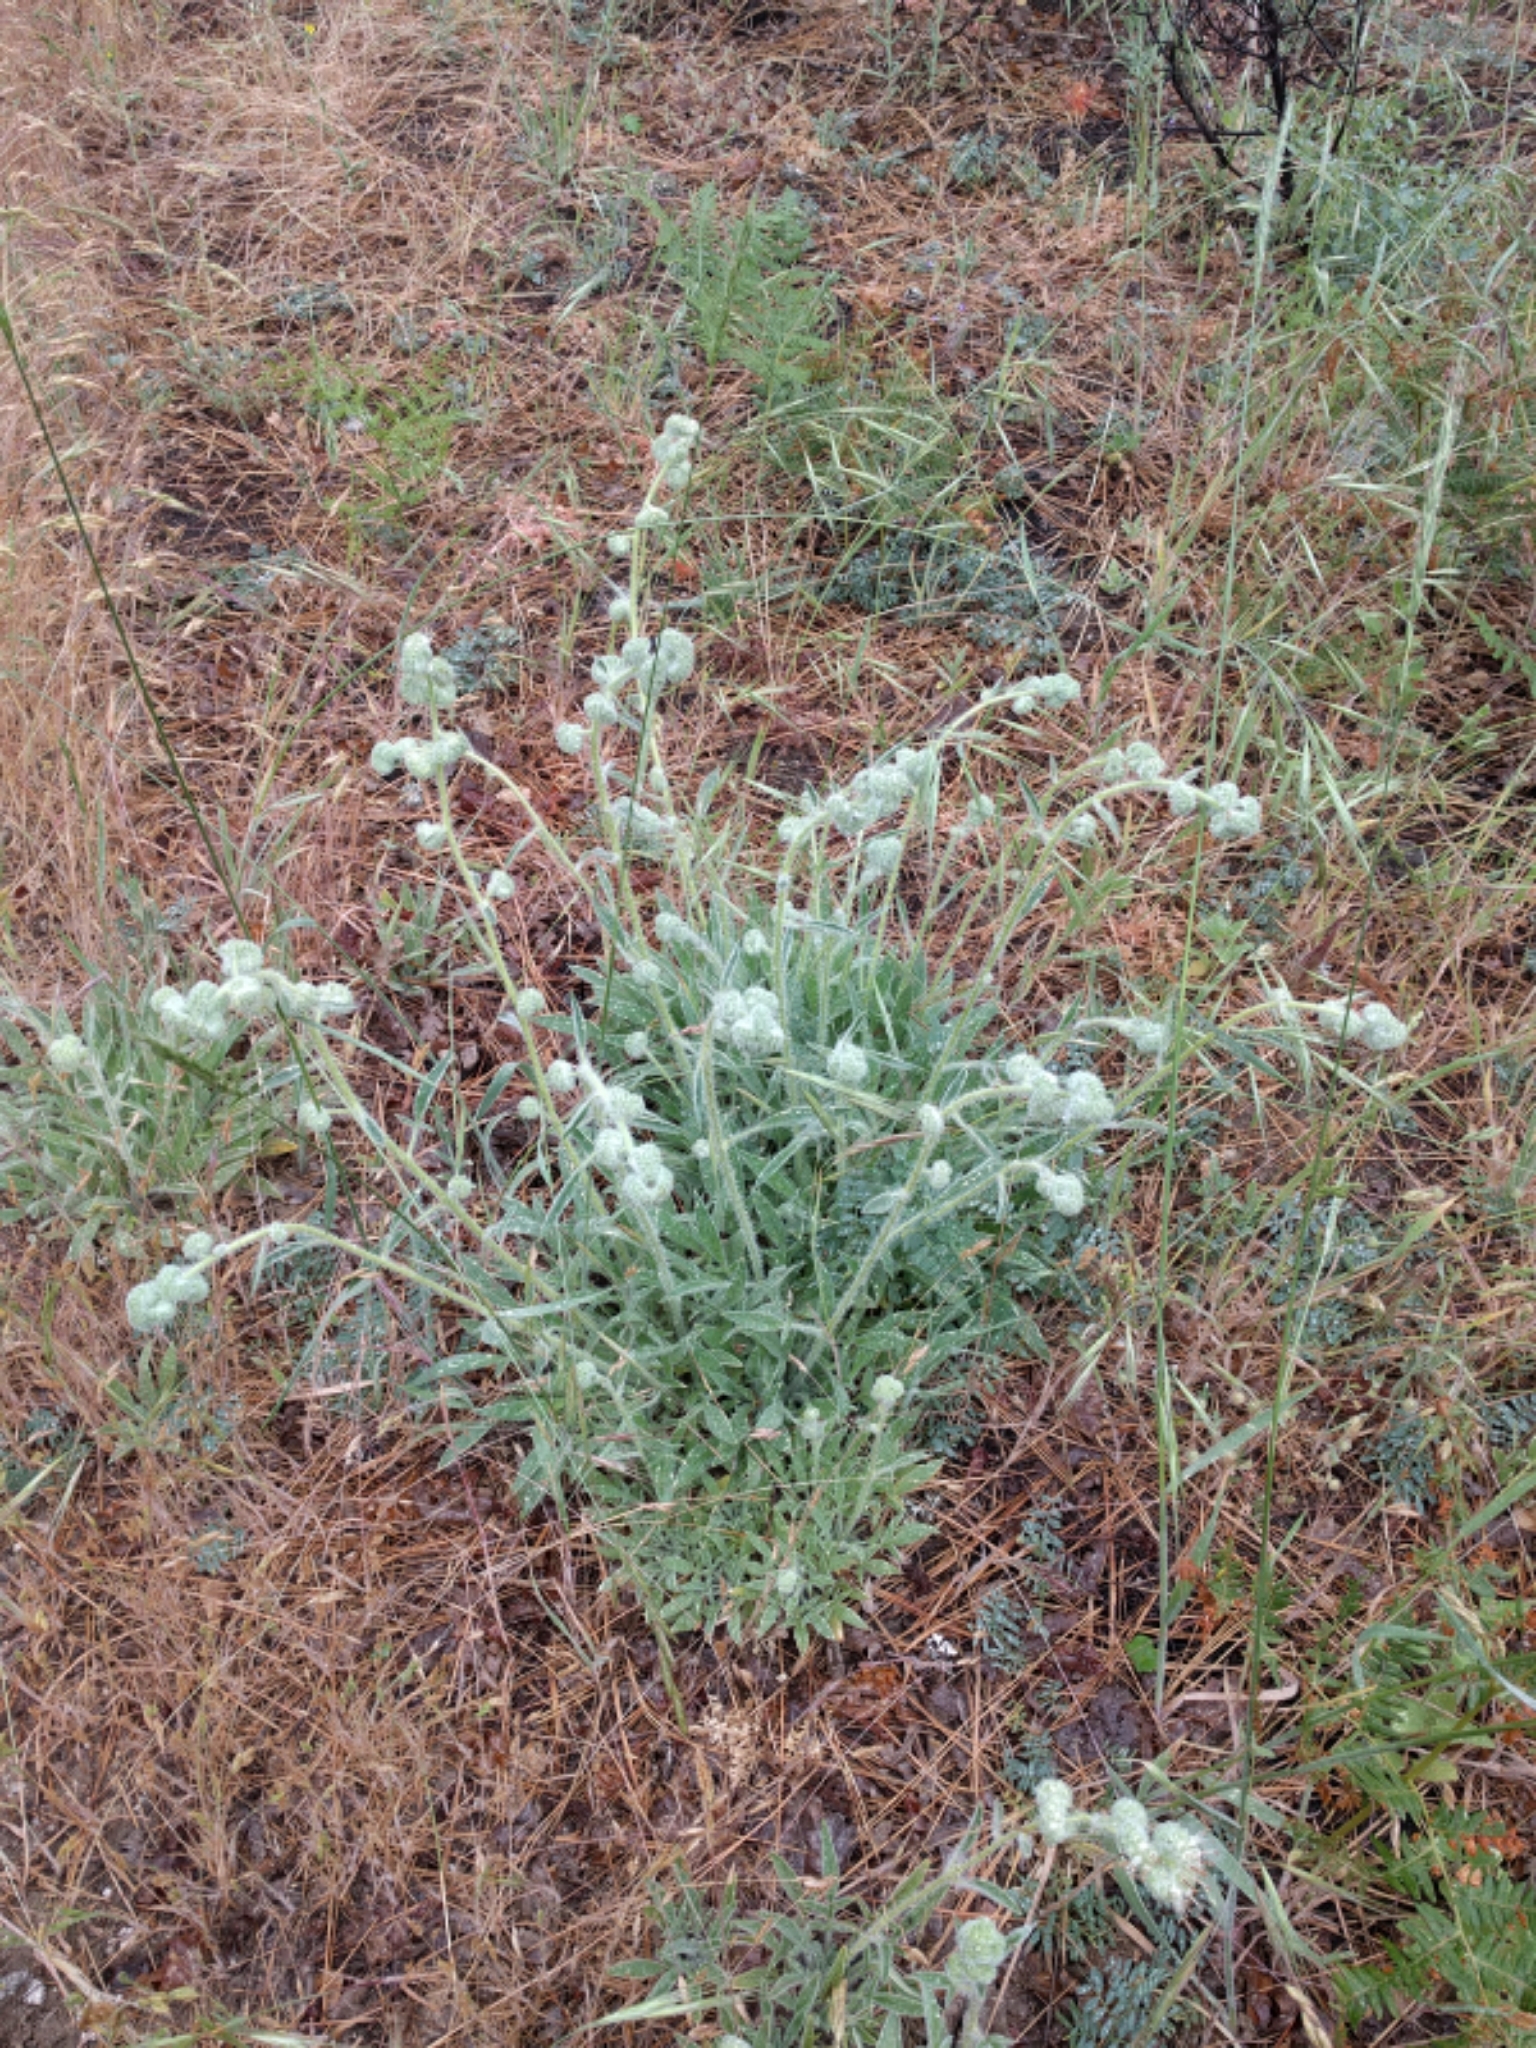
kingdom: Plantae
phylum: Tracheophyta
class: Magnoliopsida
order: Boraginales
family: Hydrophyllaceae
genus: Phacelia
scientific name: Phacelia imbricata
